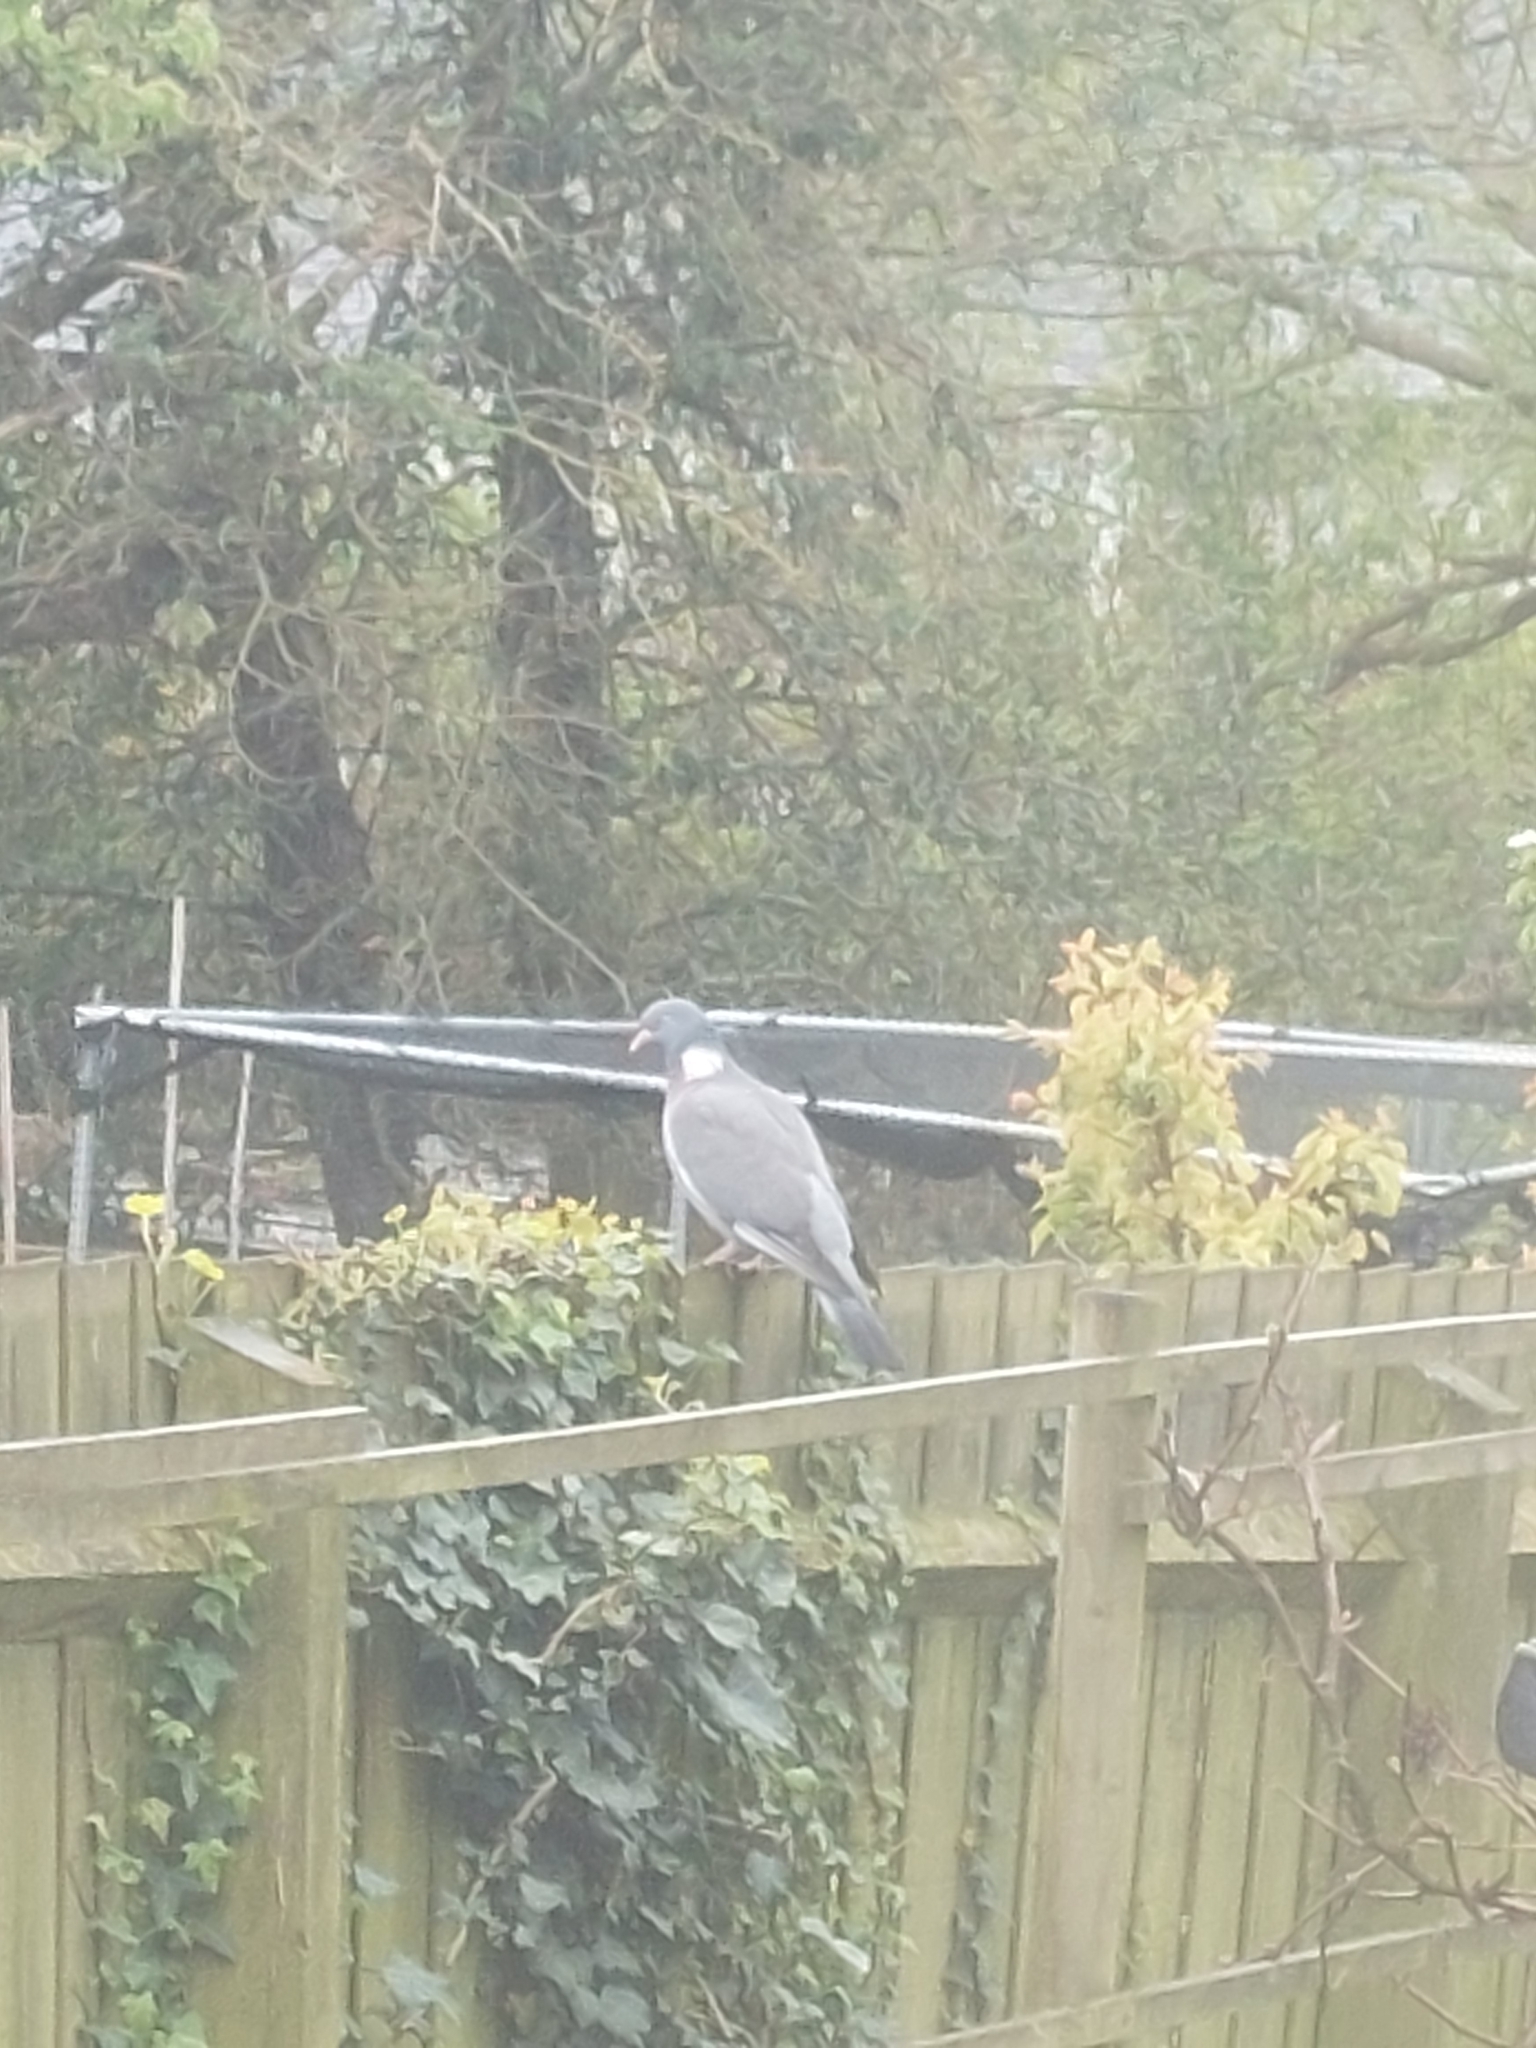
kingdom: Animalia
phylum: Chordata
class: Aves
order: Columbiformes
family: Columbidae
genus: Columba
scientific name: Columba palumbus
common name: Common wood pigeon
